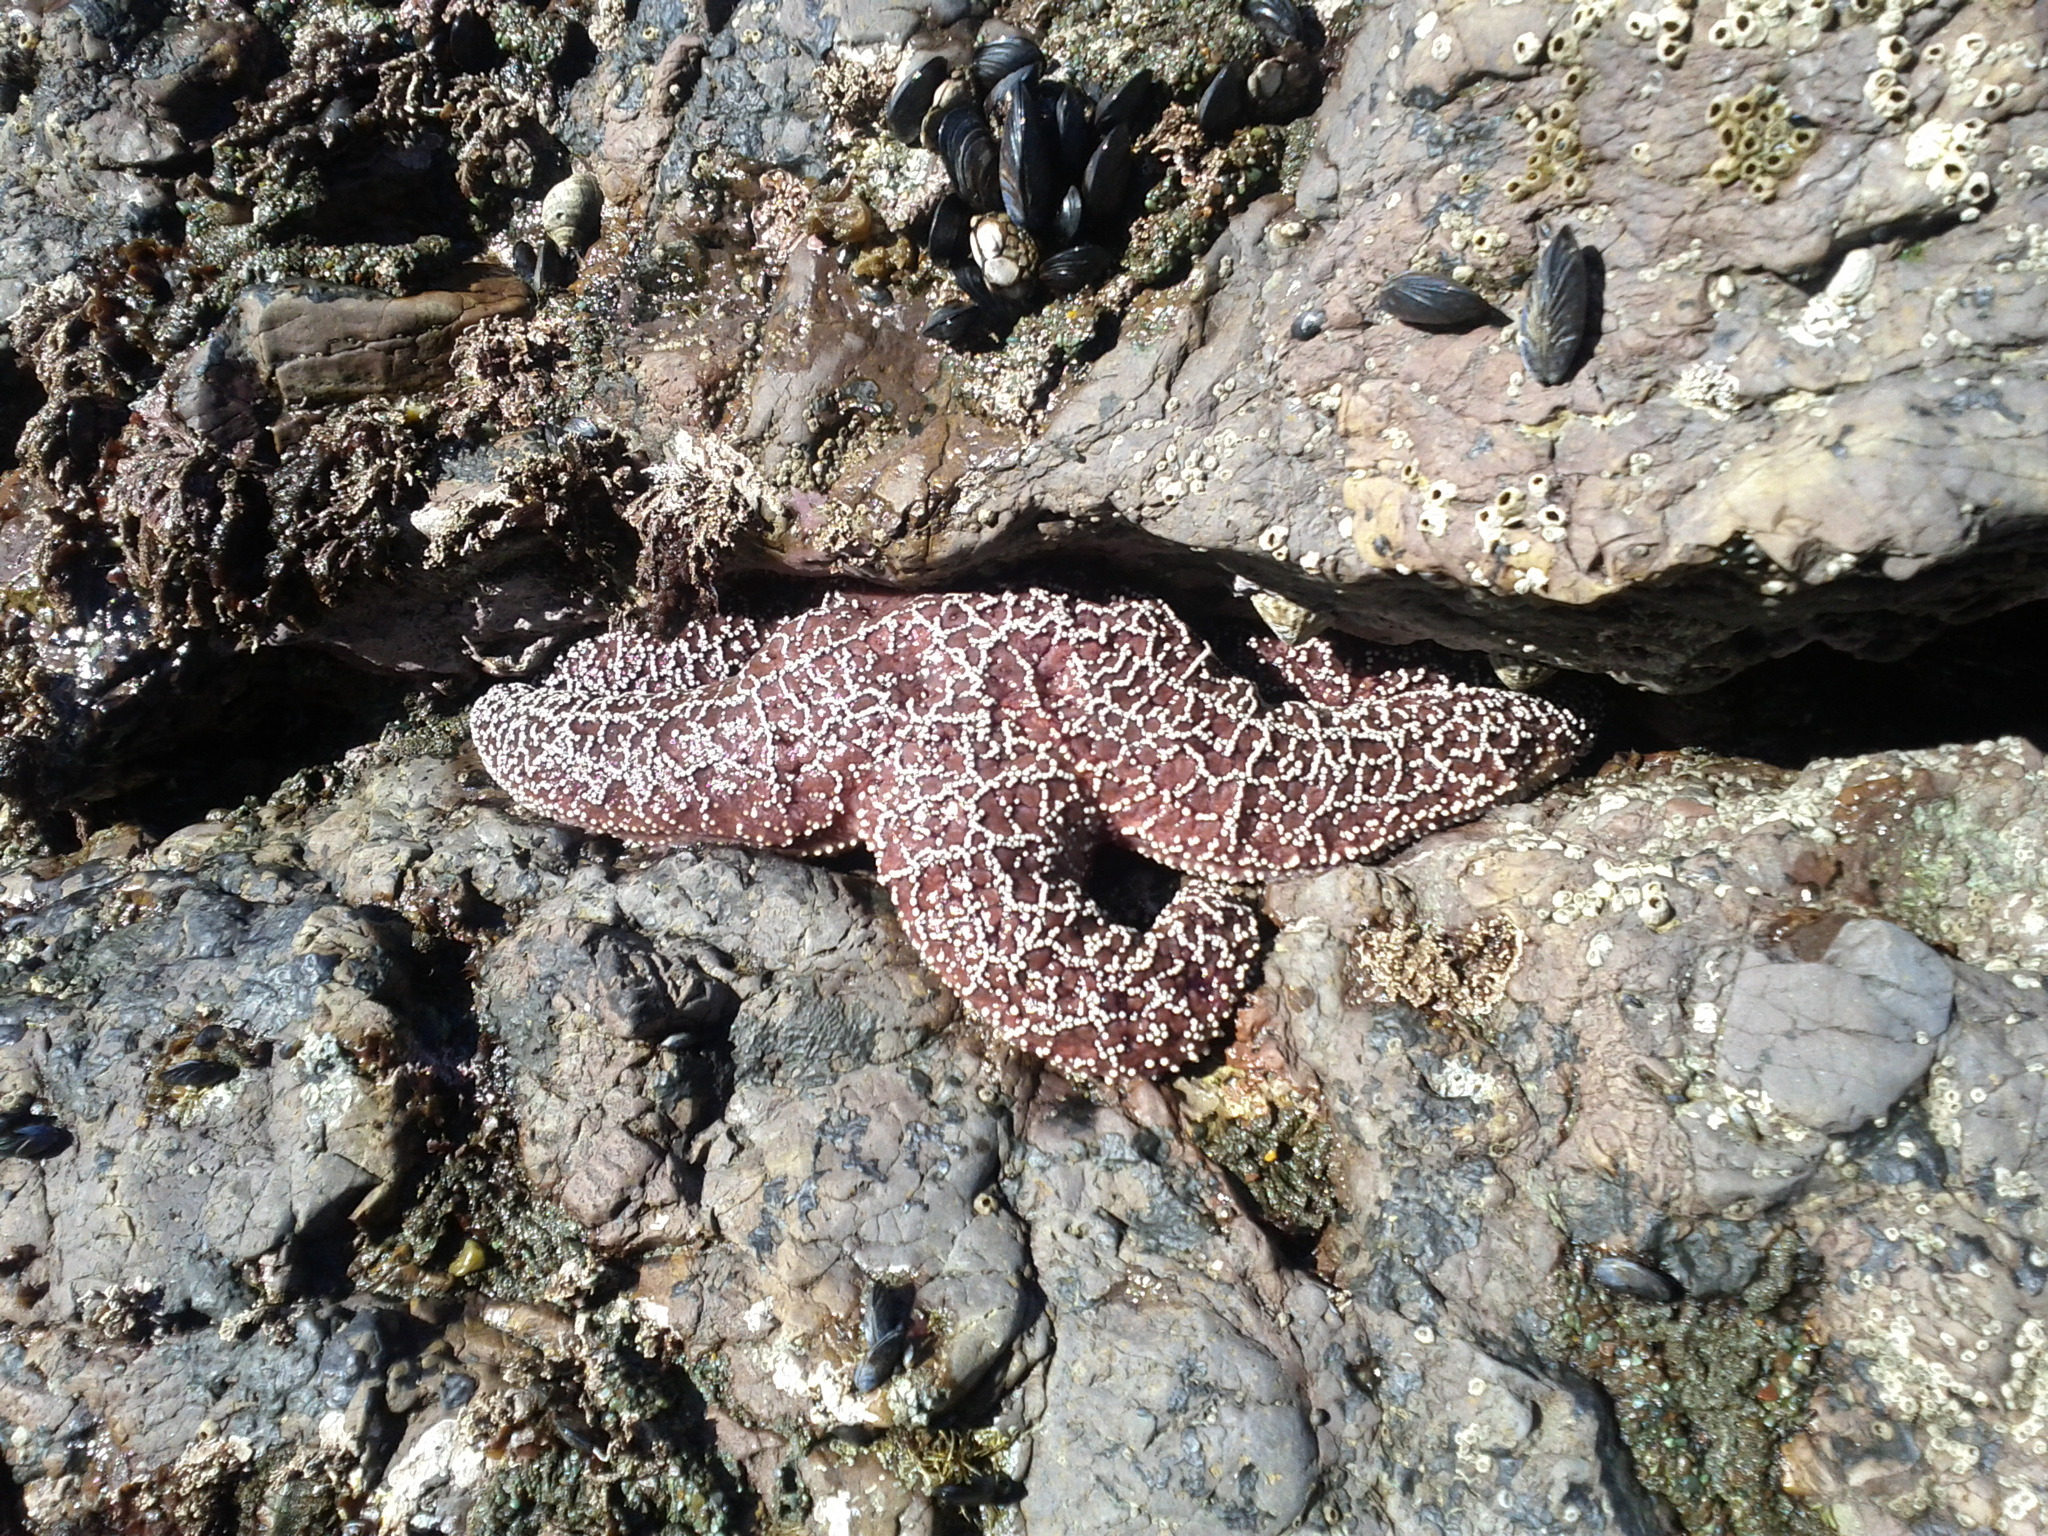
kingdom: Animalia
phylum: Echinodermata
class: Asteroidea
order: Forcipulatida
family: Asteriidae
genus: Pisaster
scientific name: Pisaster ochraceus
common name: Ochre stars
